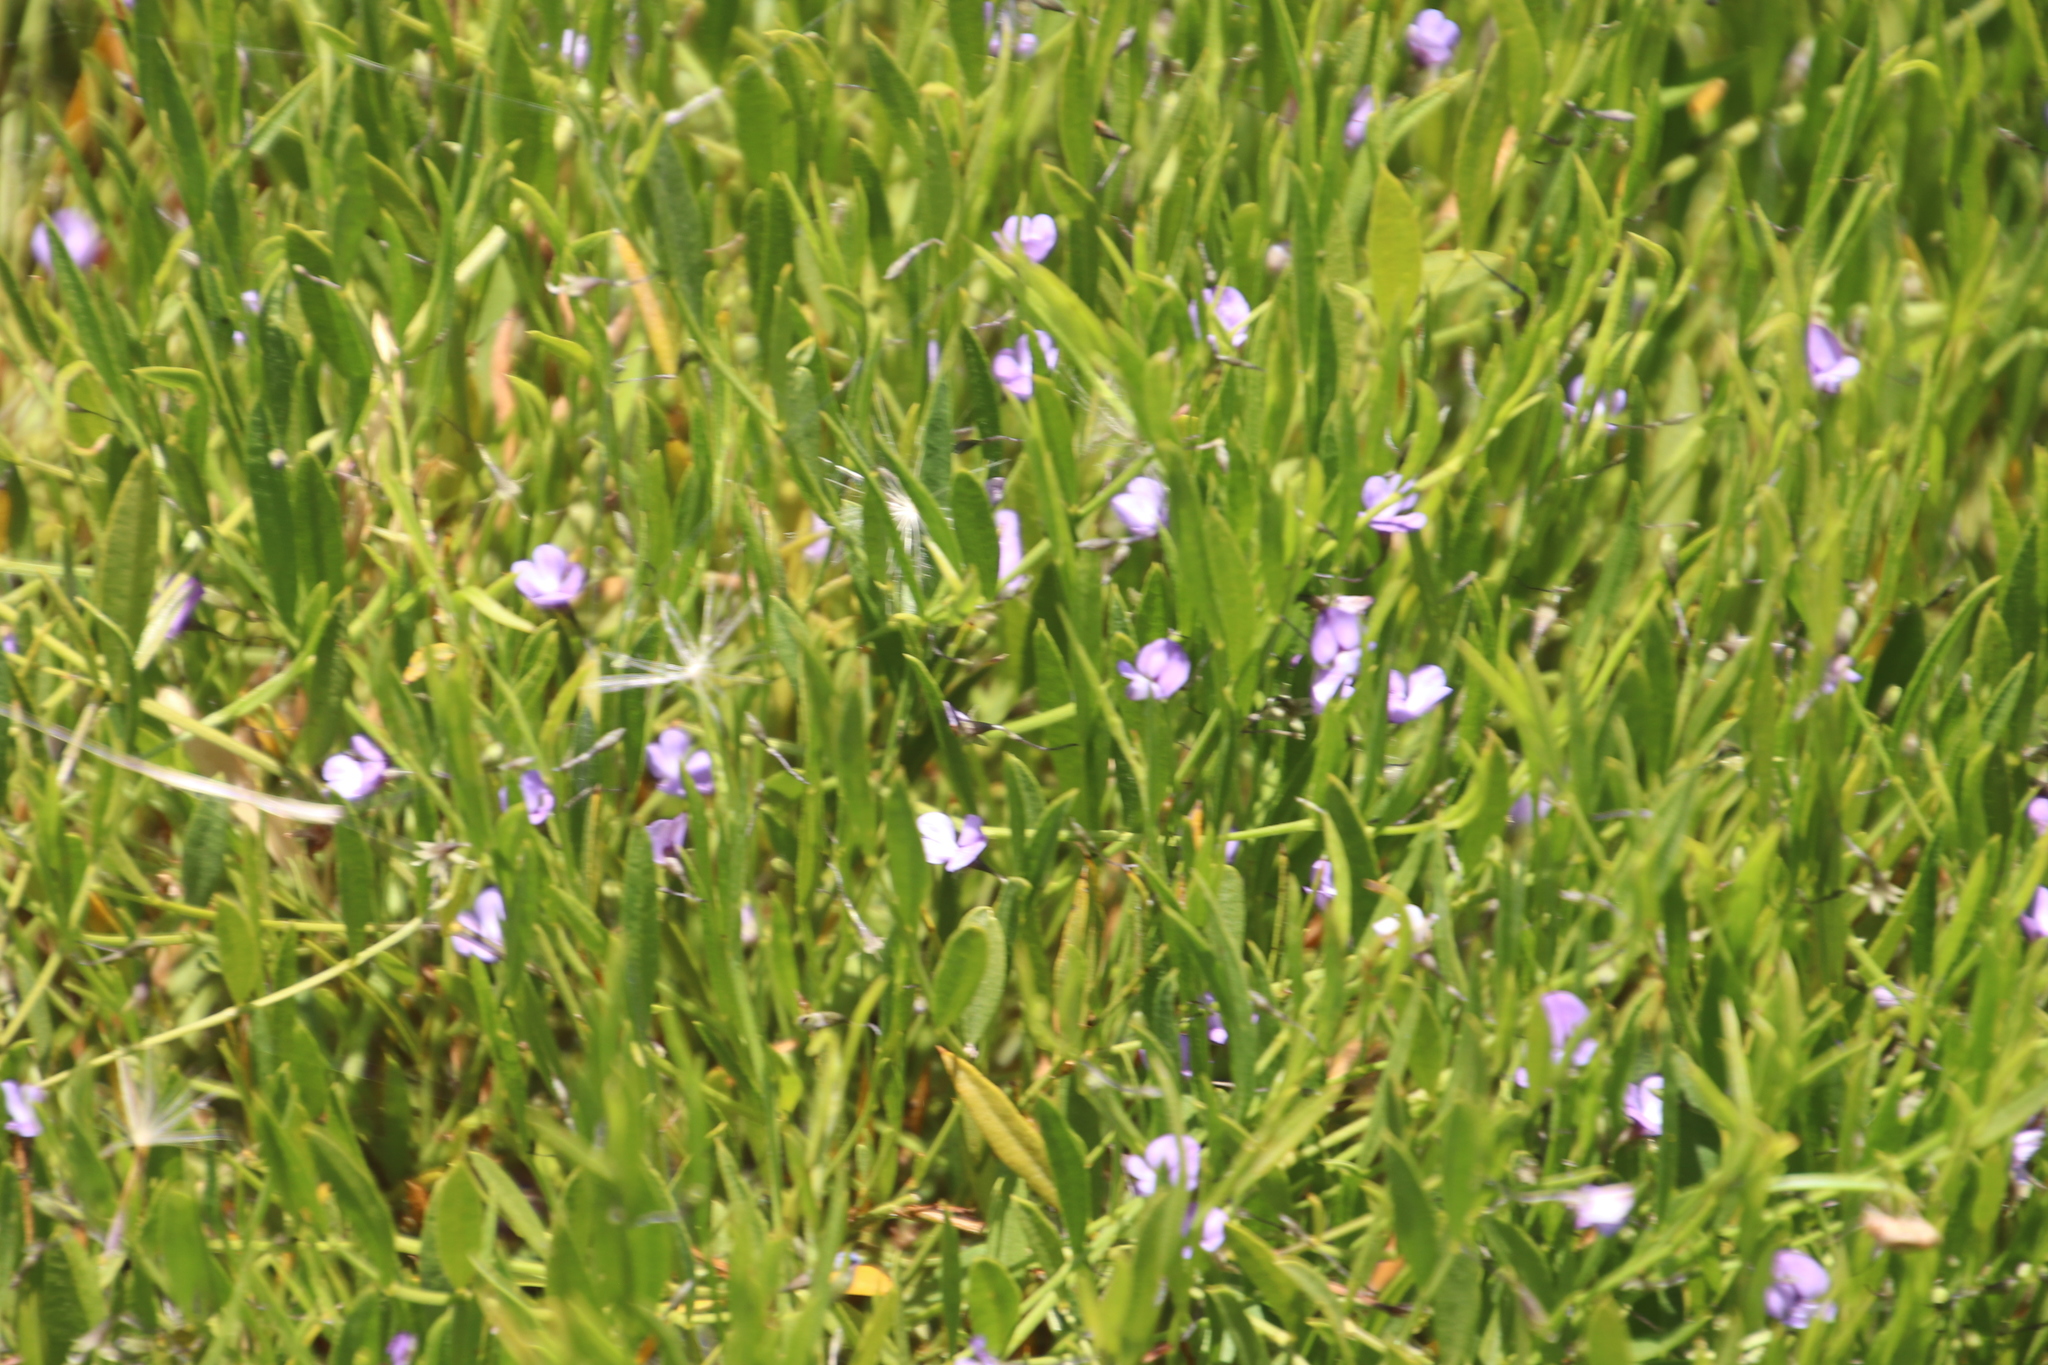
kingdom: Plantae
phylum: Tracheophyta
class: Magnoliopsida
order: Fabales
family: Fabaceae
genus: Psoralea
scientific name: Psoralea laxa
